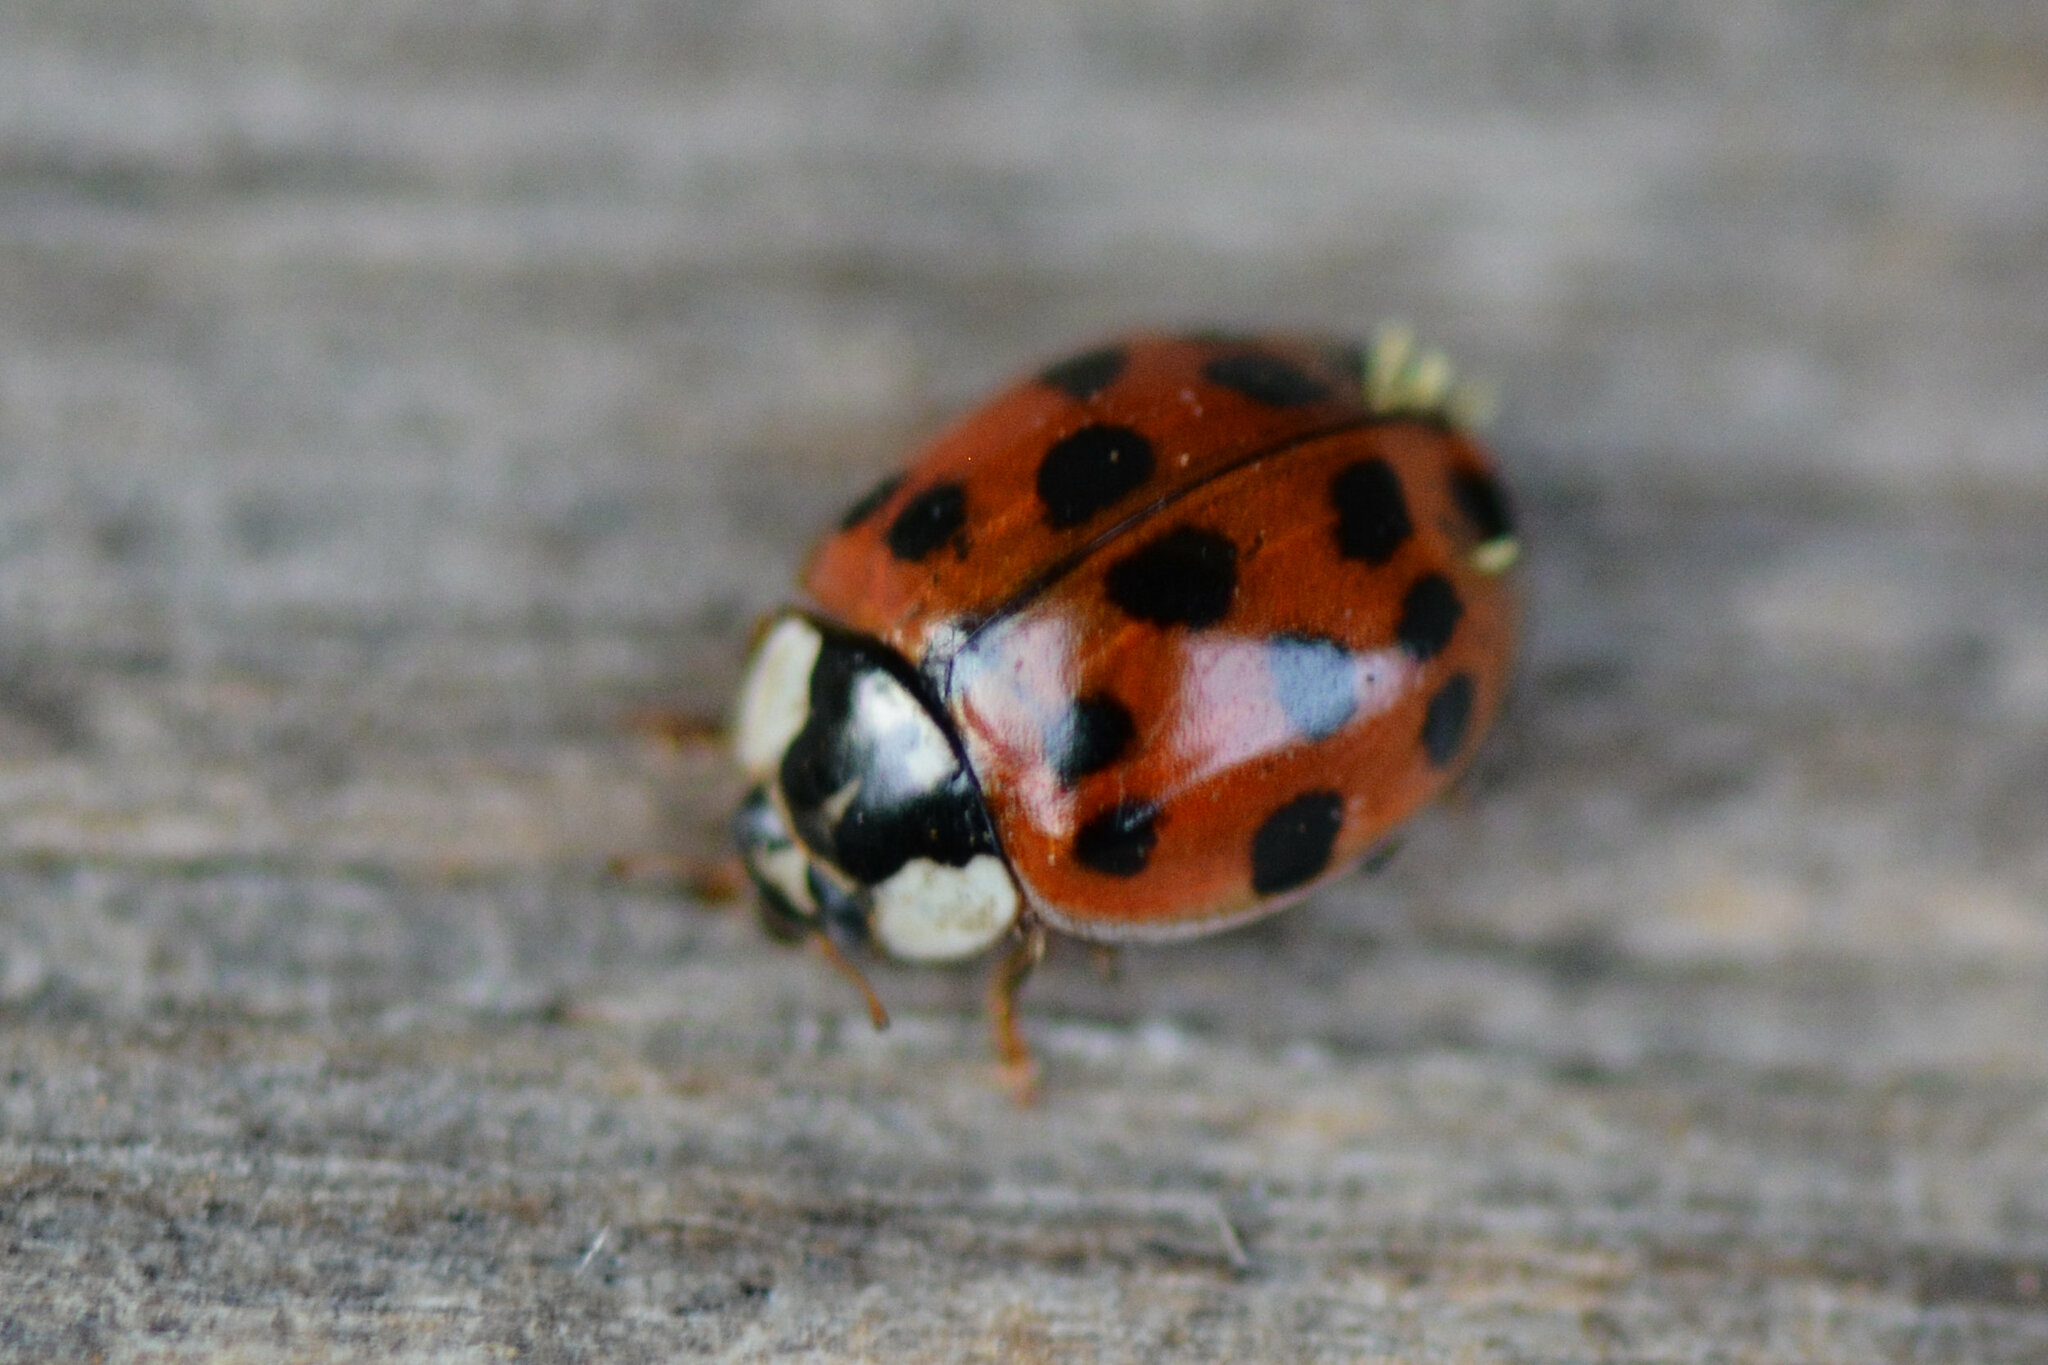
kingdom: Animalia
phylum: Arthropoda
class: Insecta
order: Coleoptera
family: Coccinellidae
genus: Harmonia
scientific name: Harmonia axyridis
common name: Harlequin ladybird
